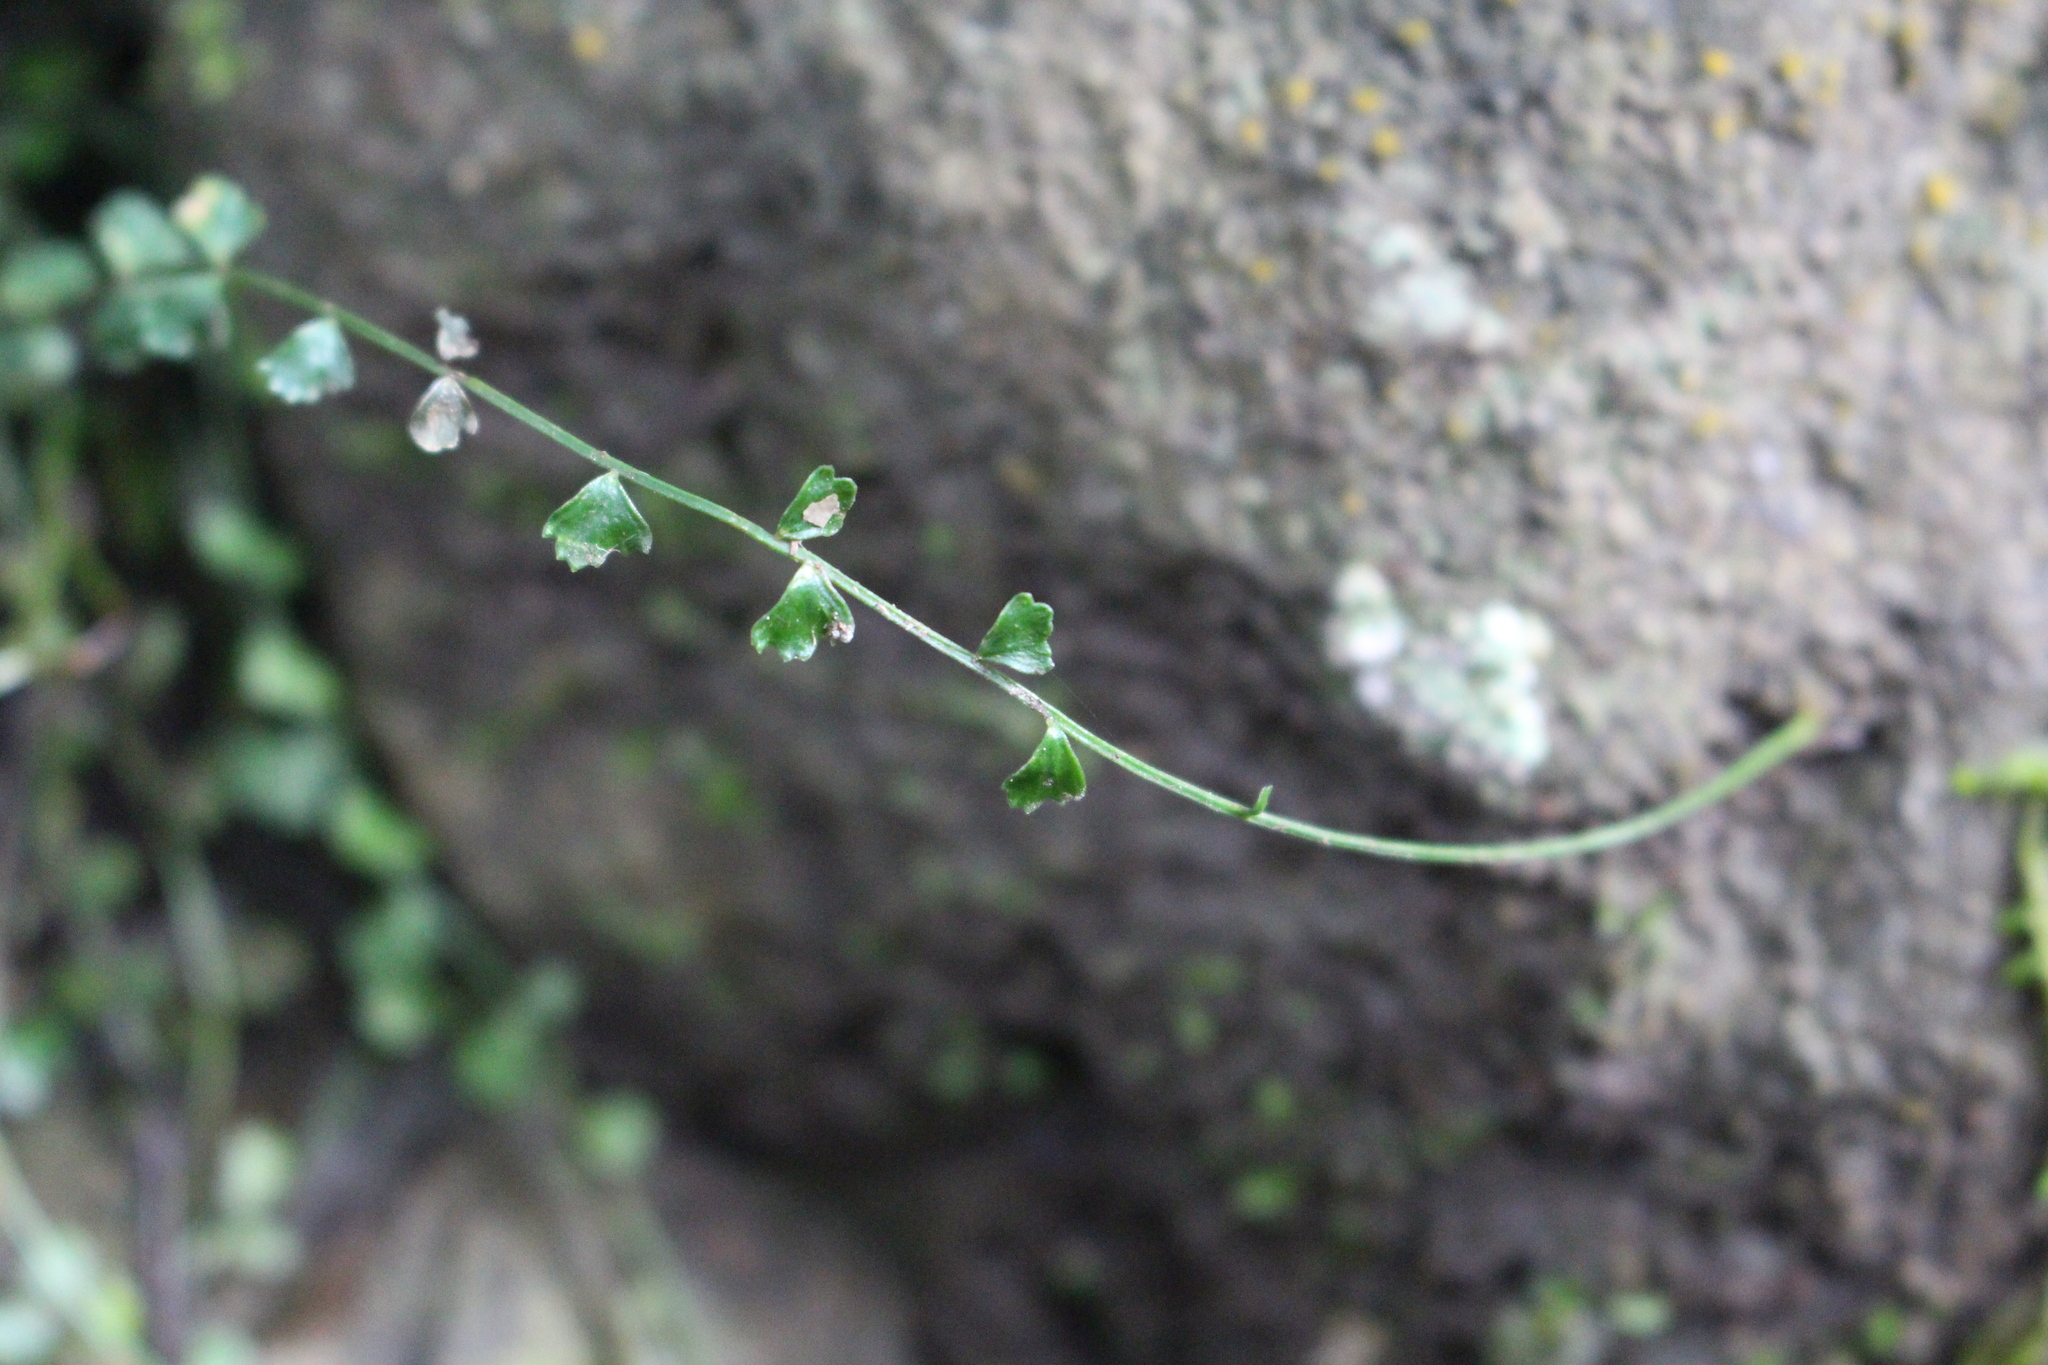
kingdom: Plantae
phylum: Tracheophyta
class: Polypodiopsida
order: Polypodiales
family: Aspleniaceae
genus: Asplenium
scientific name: Asplenium flabellifolium
